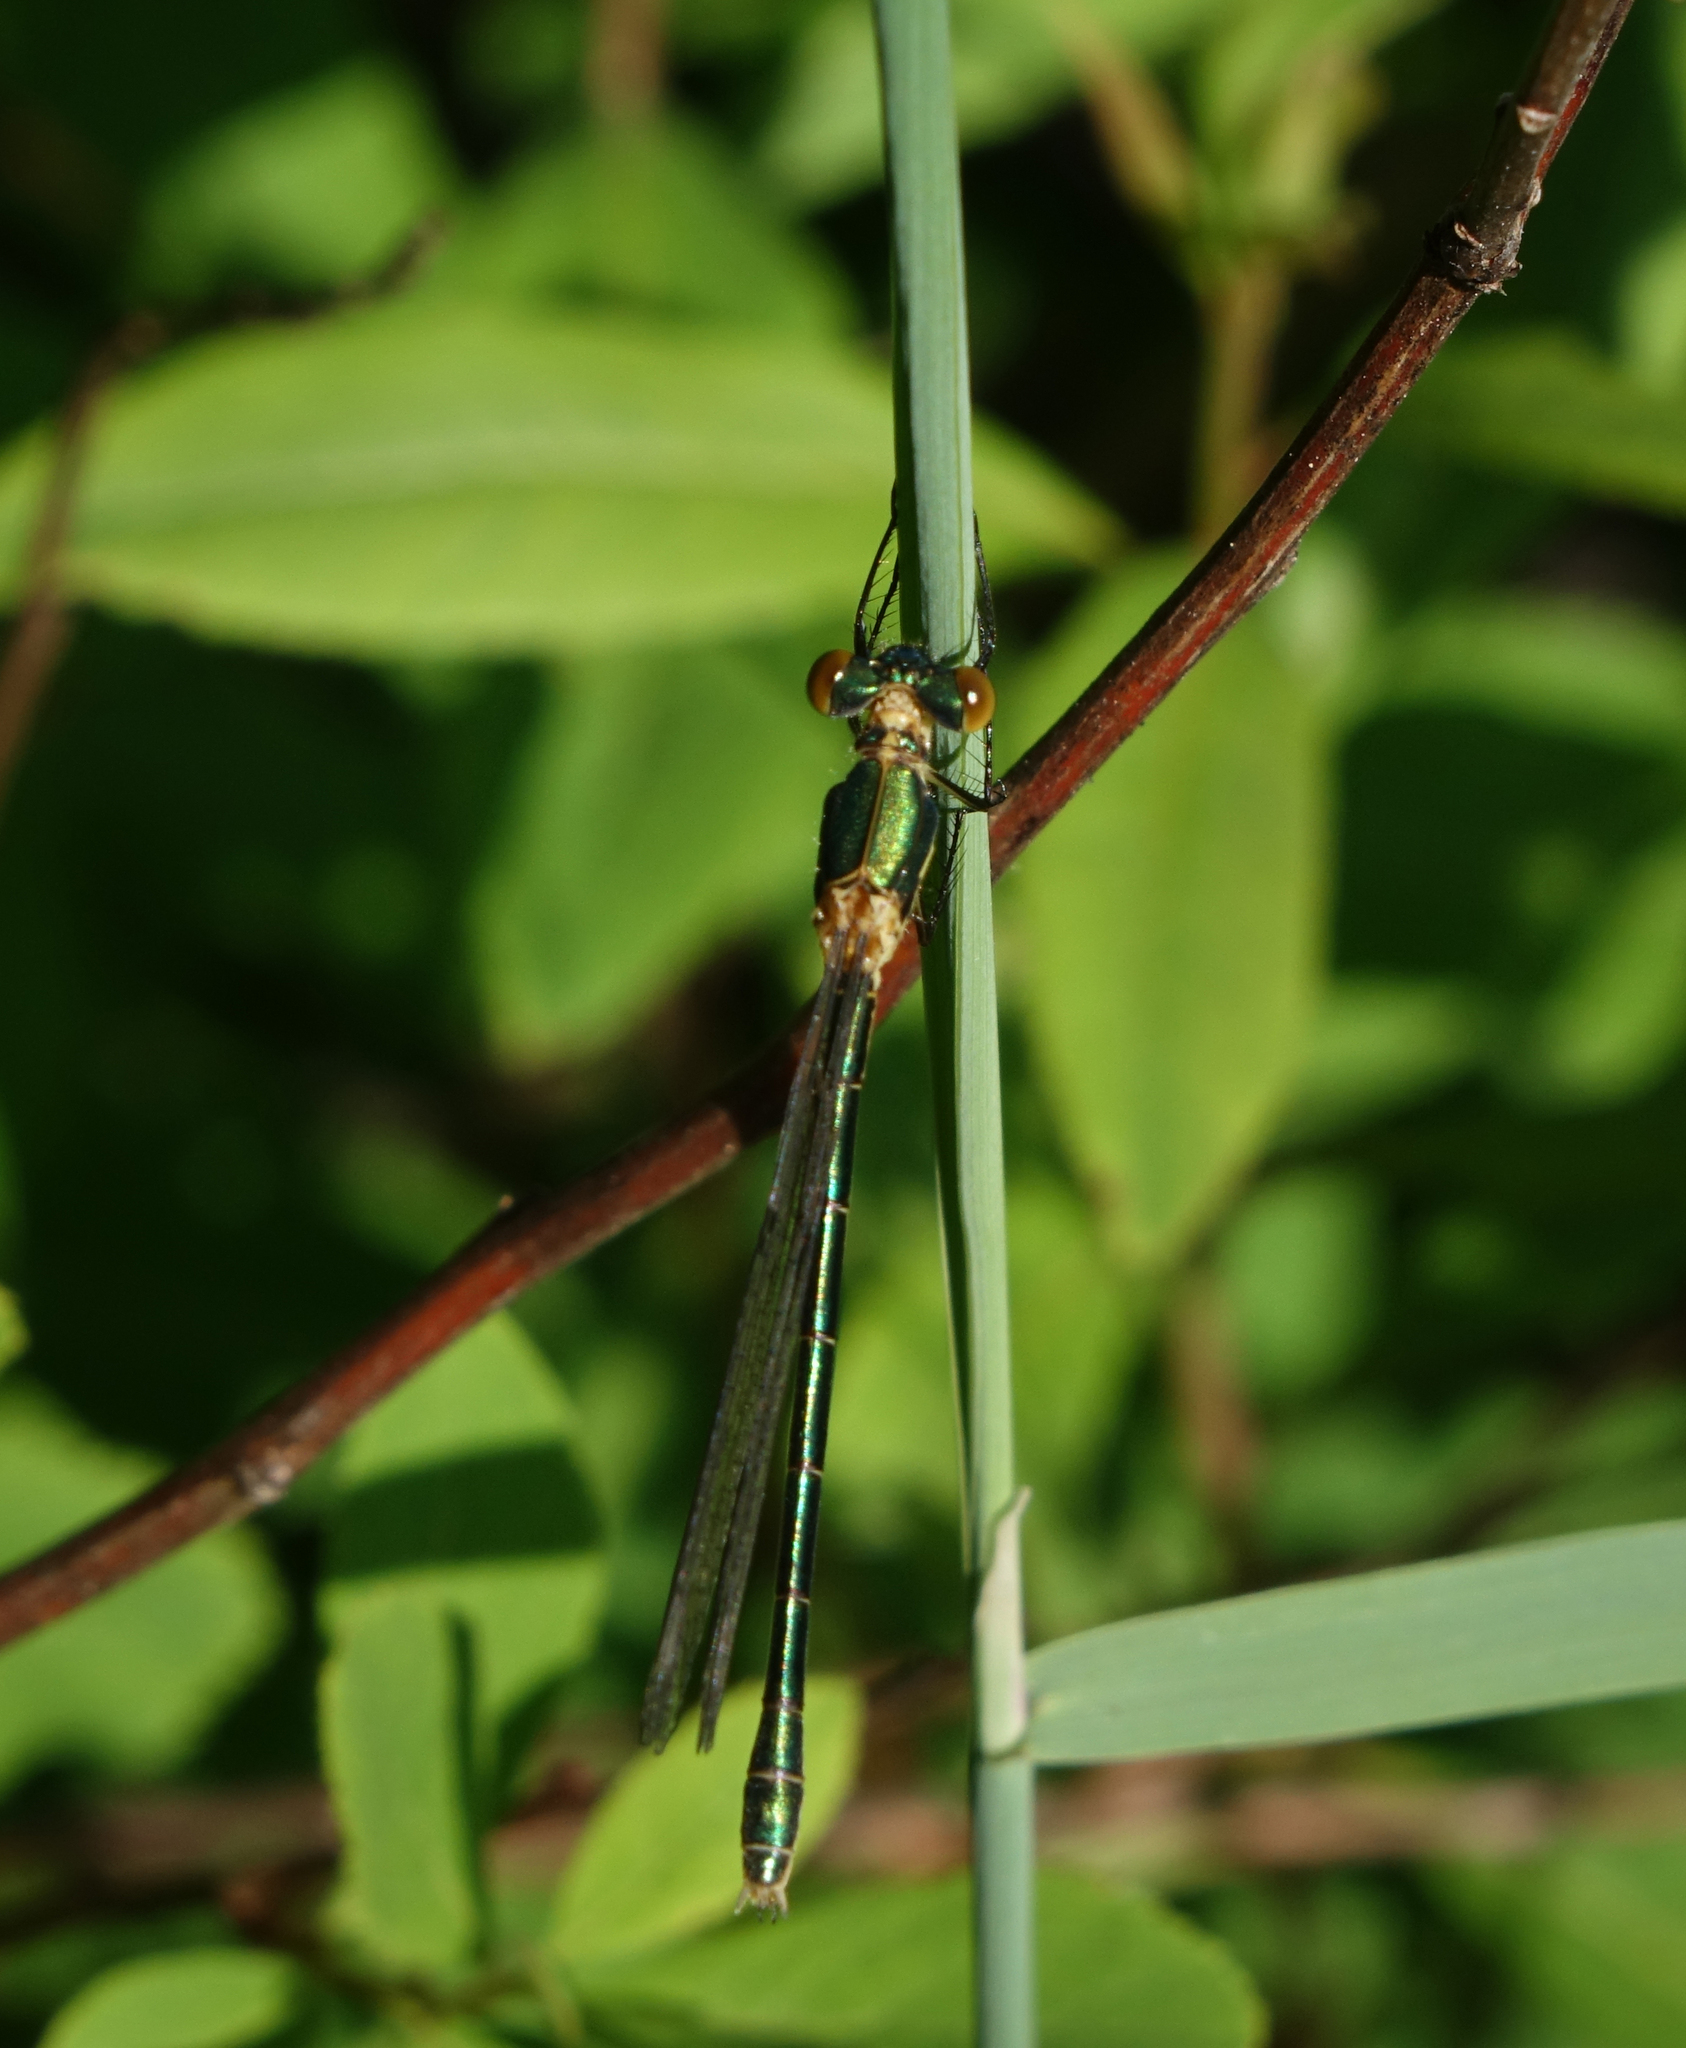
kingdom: Animalia
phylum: Arthropoda
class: Insecta
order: Odonata
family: Lestidae
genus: Lestes
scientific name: Lestes dryas
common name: Scarce emerald damselfly
